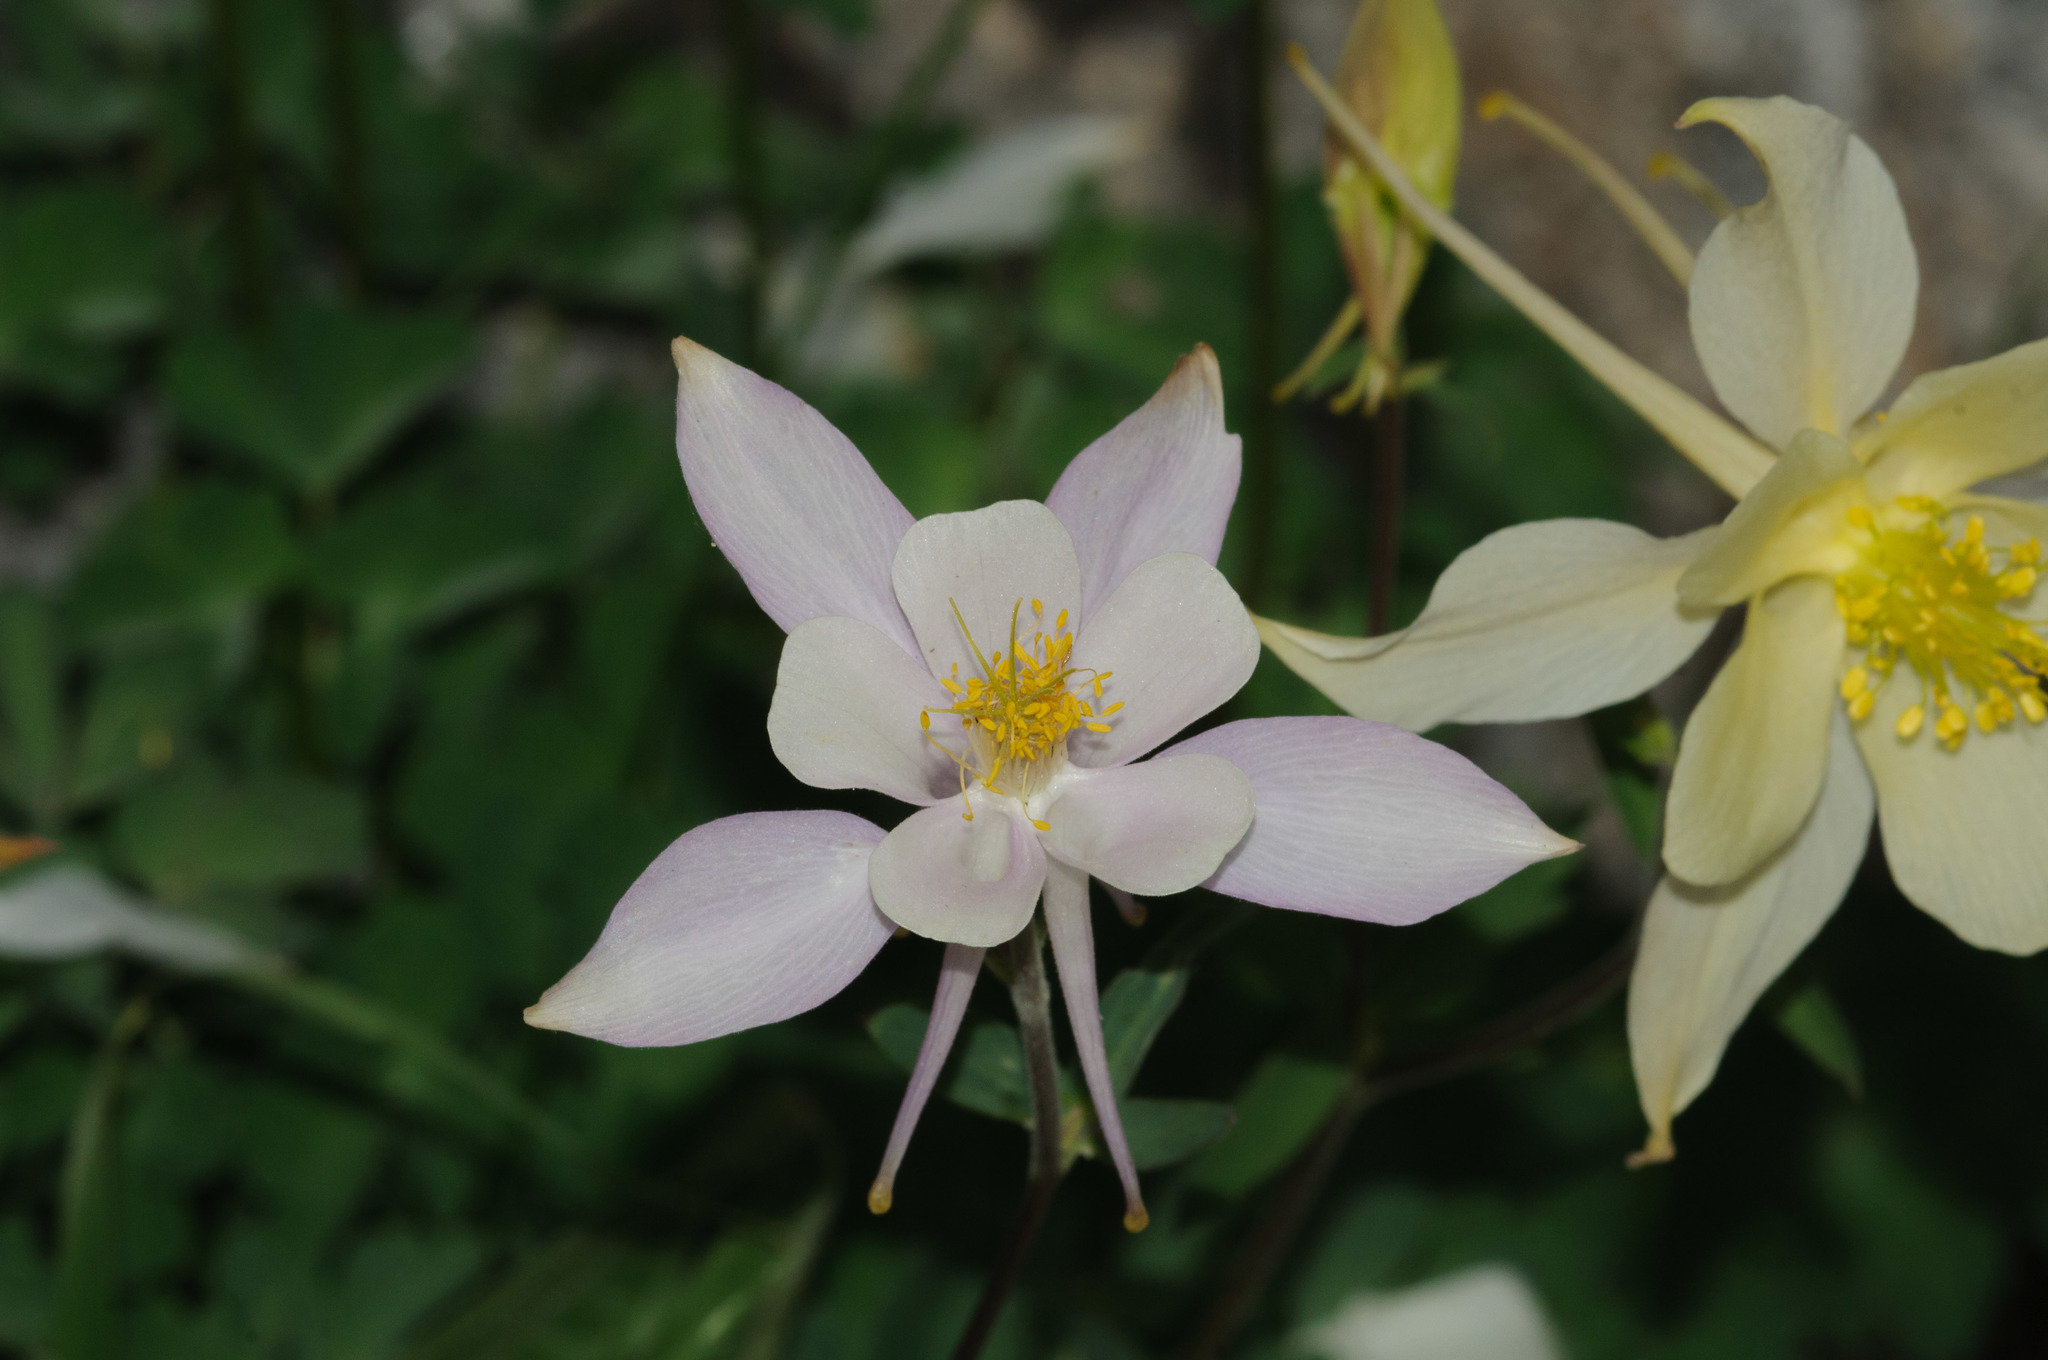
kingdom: Plantae
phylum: Tracheophyta
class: Magnoliopsida
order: Ranunculales
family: Ranunculaceae
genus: Aquilegia
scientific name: Aquilegia coerulea
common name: Rocky mountain columbine
